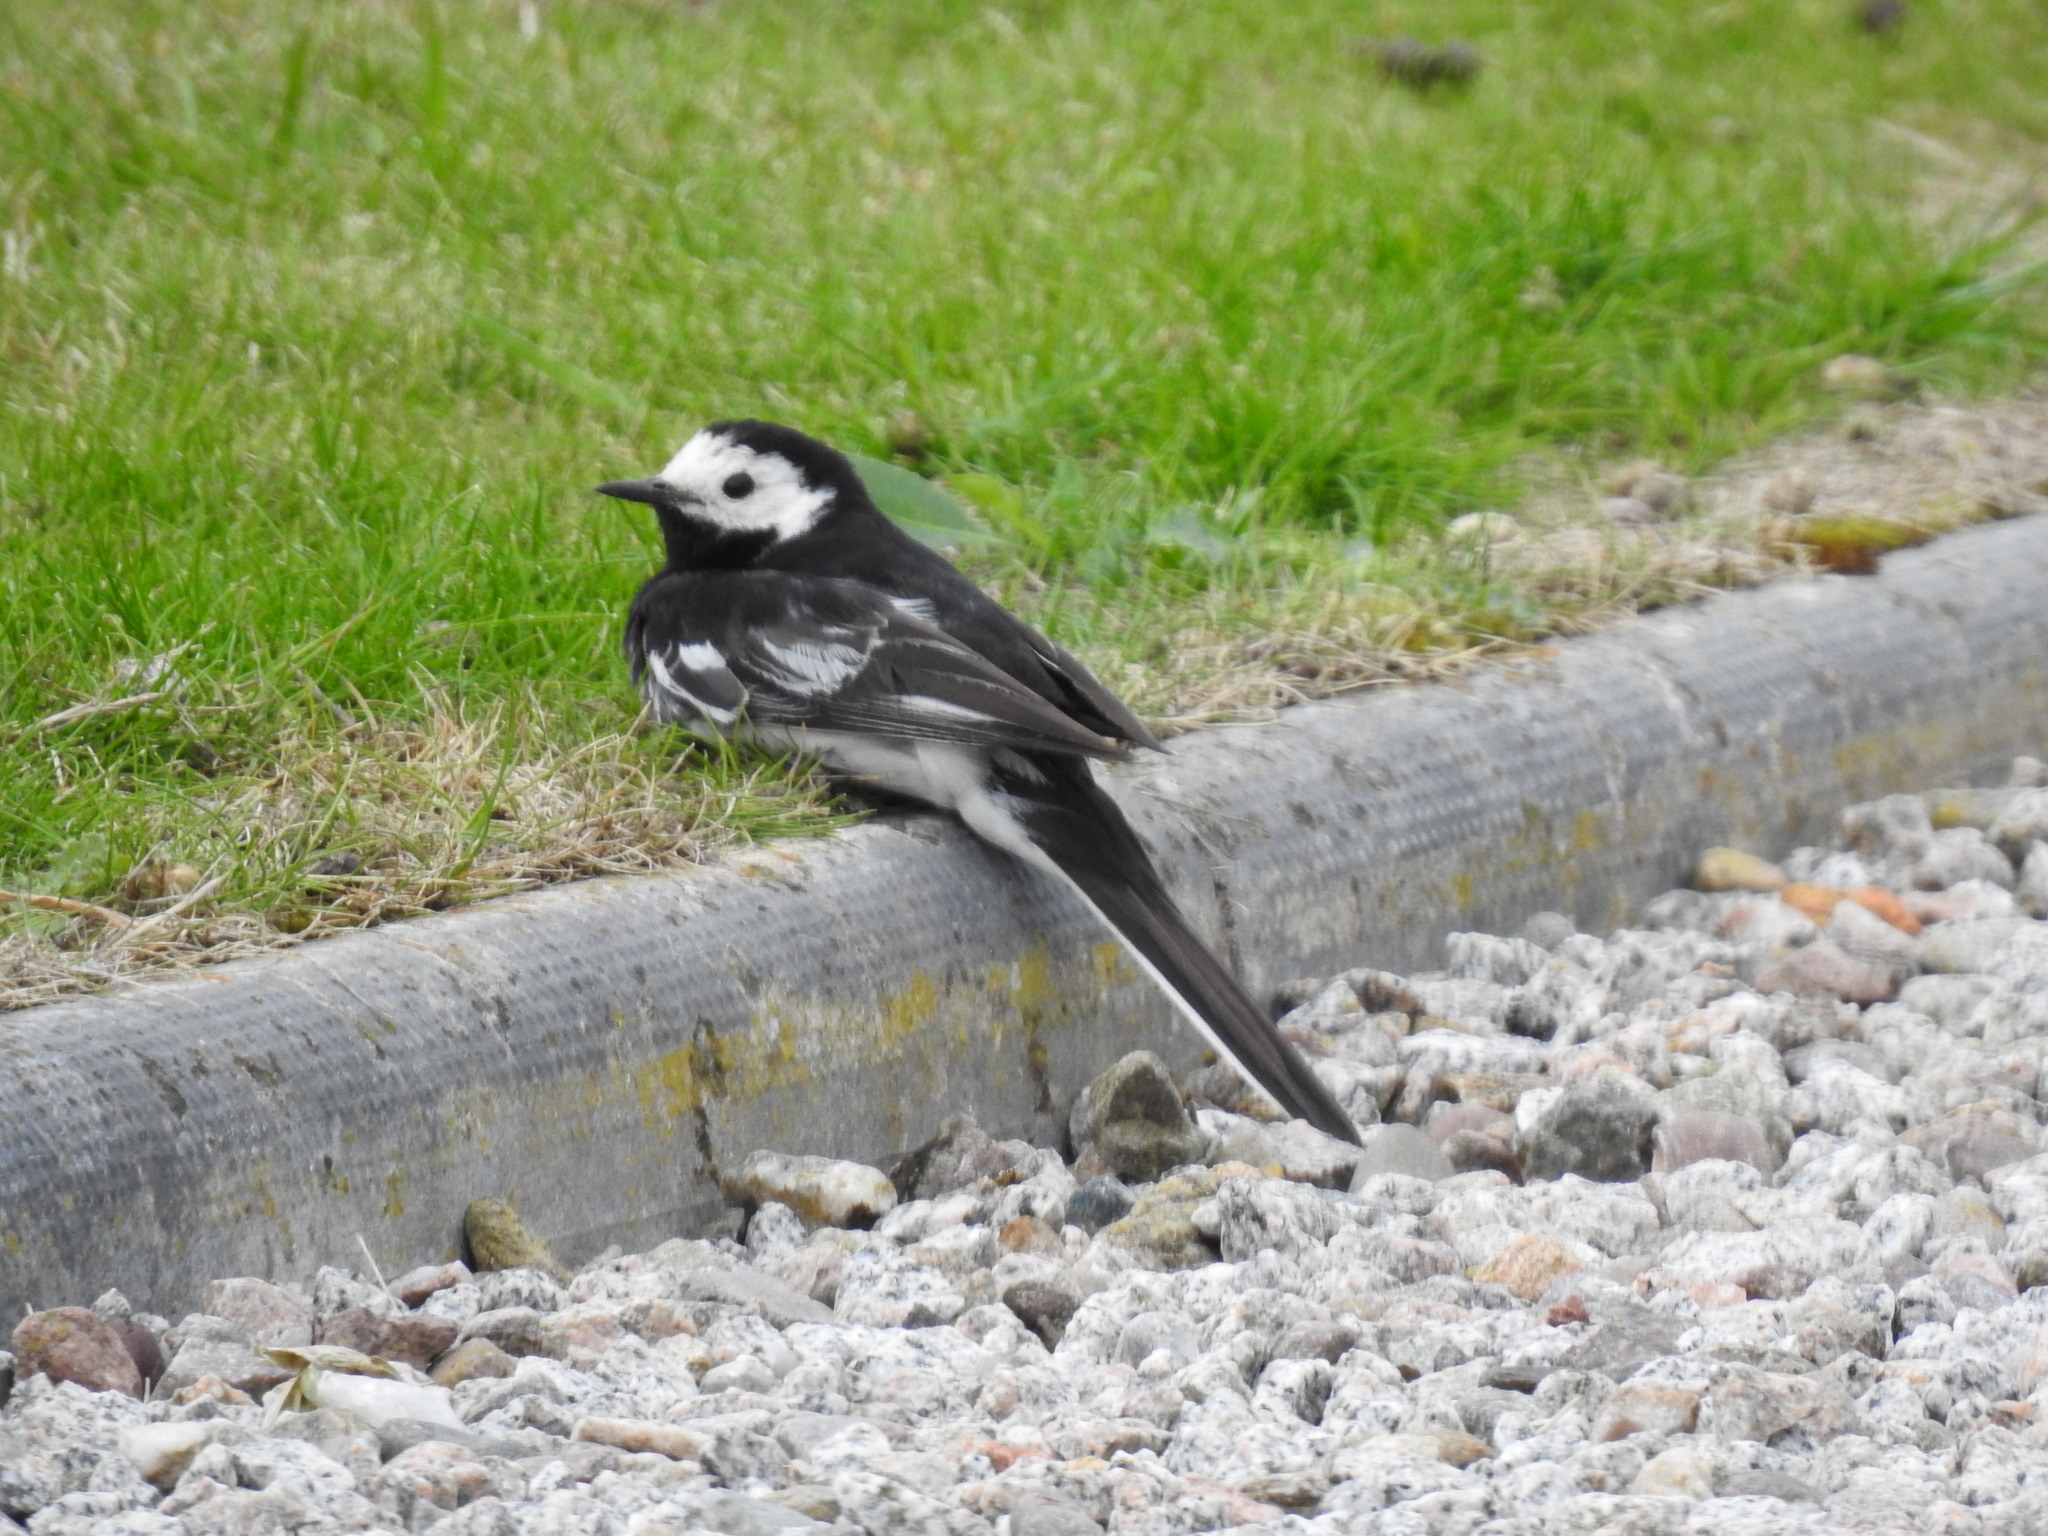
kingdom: Animalia
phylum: Chordata
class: Aves
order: Passeriformes
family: Motacillidae
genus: Motacilla
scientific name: Motacilla alba
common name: White wagtail
